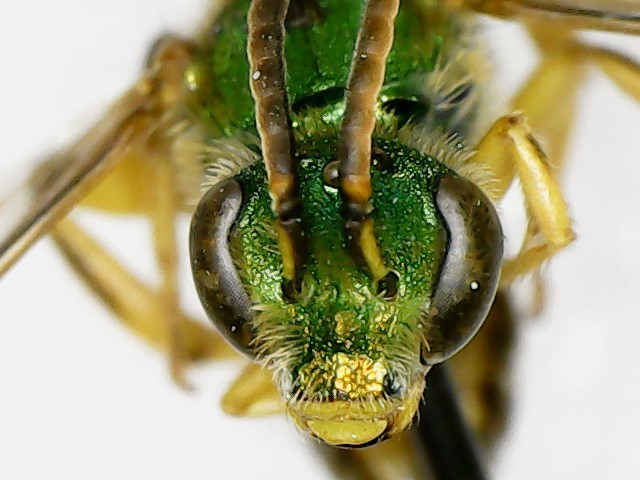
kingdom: Animalia
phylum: Arthropoda
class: Insecta
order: Hymenoptera
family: Halictidae
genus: Agapostemon
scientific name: Agapostemon sericeus
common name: Silky striped sweat bee
